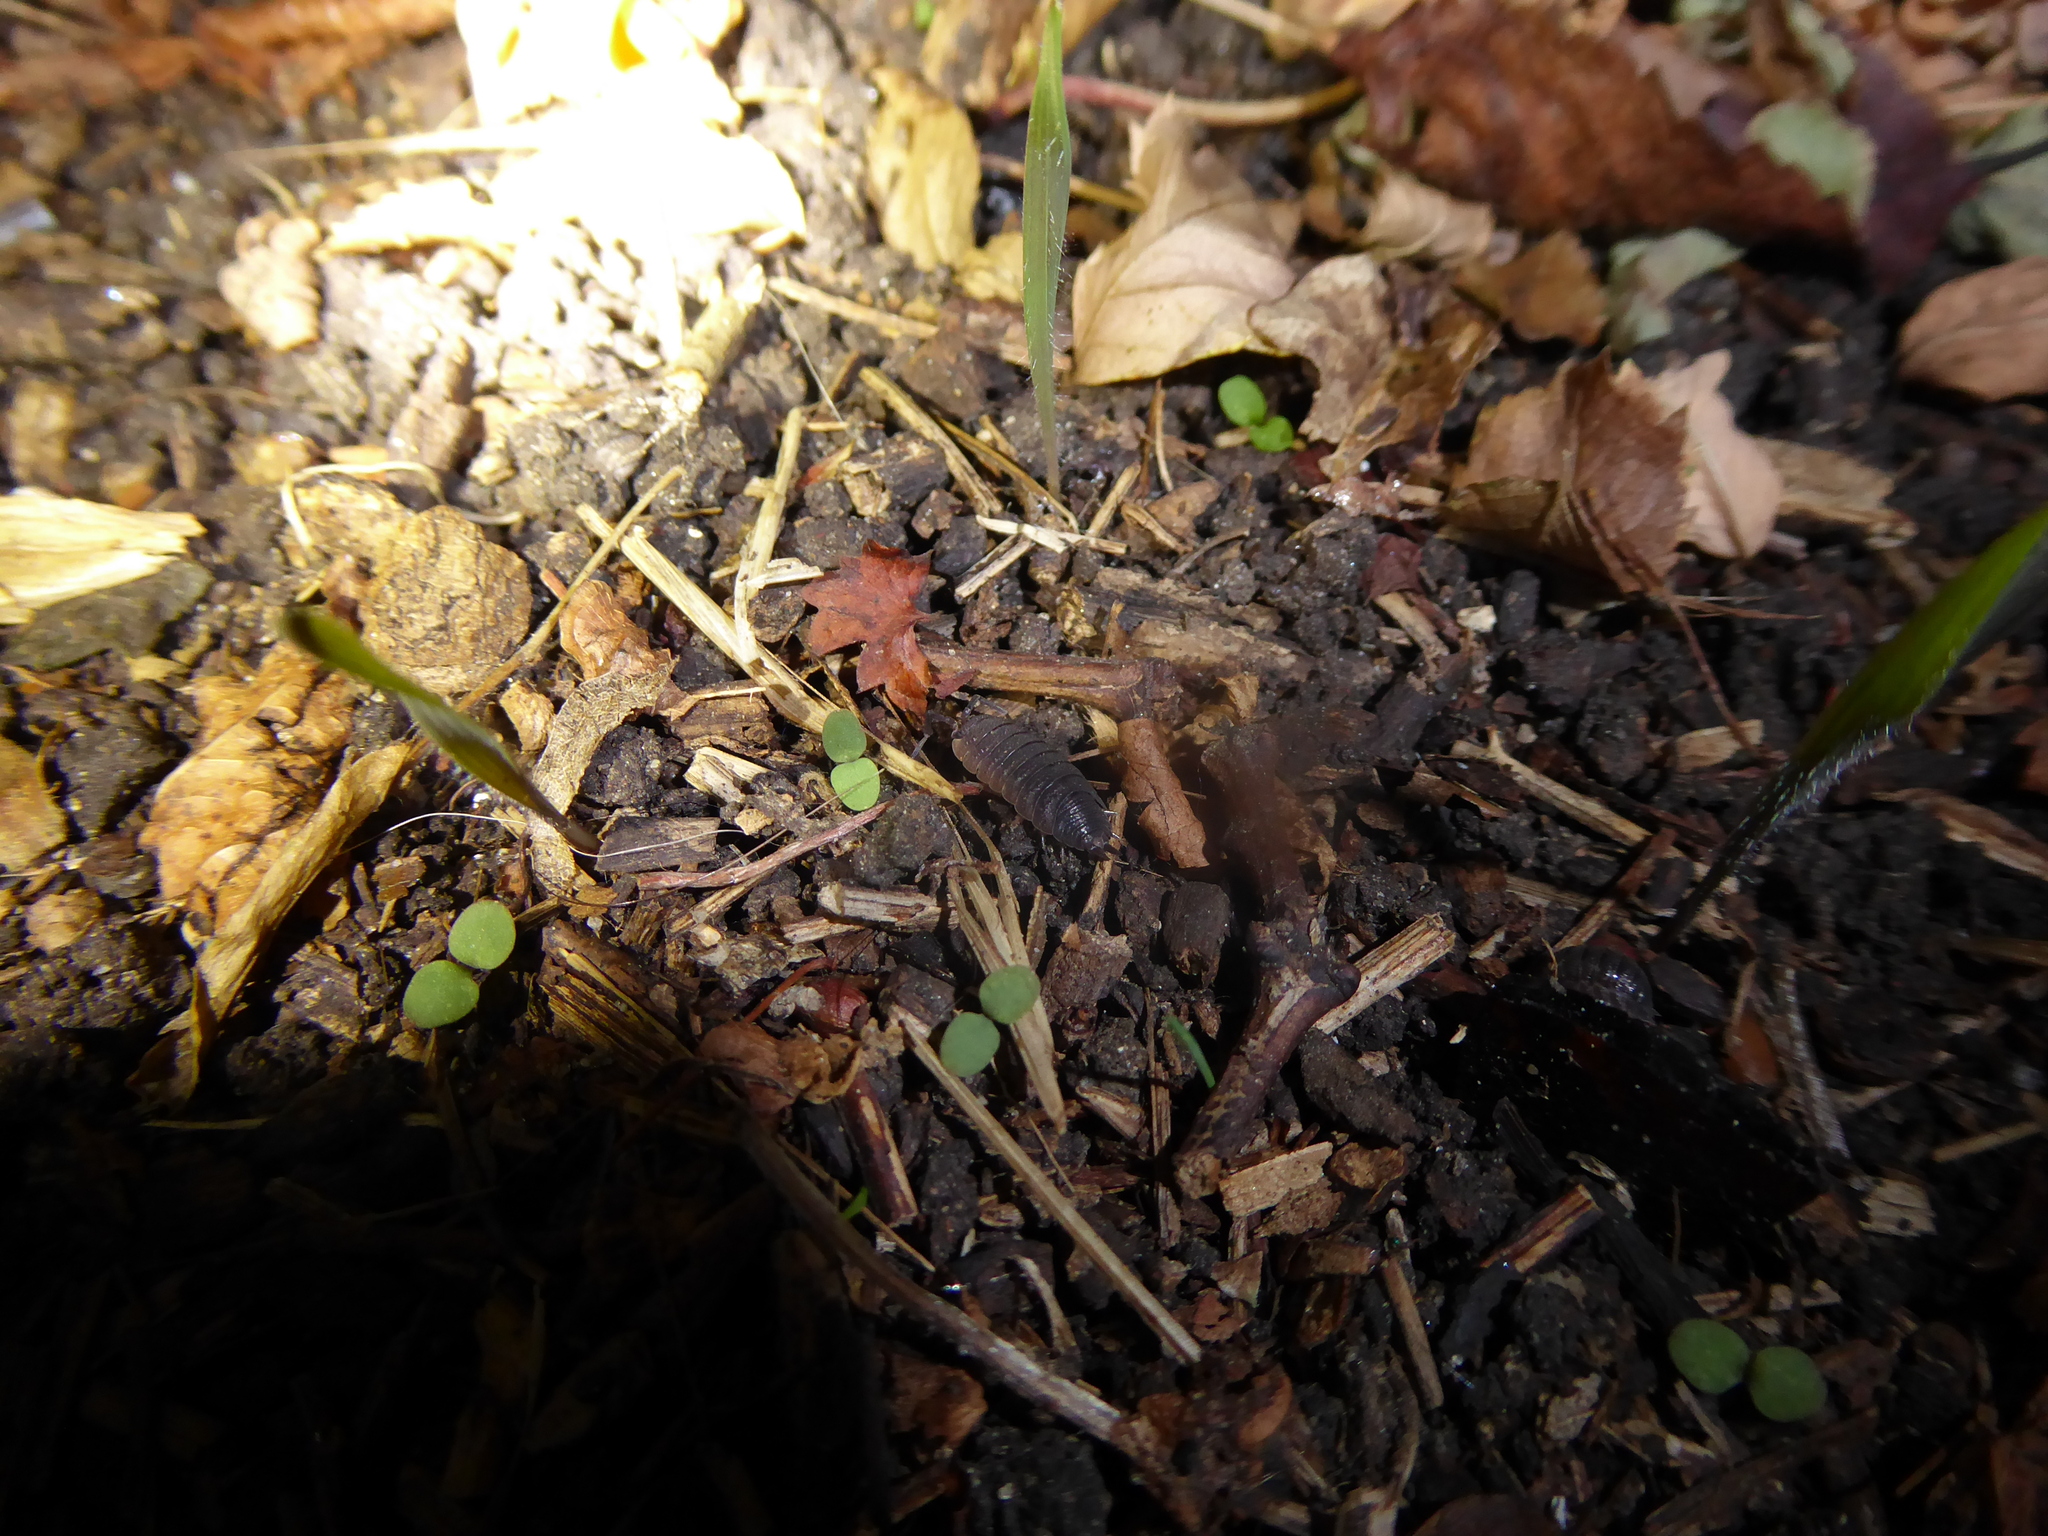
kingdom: Animalia
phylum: Arthropoda
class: Malacostraca
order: Isopoda
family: Porcellionidae
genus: Porcellio
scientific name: Porcellio scaber
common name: Common rough woodlouse
